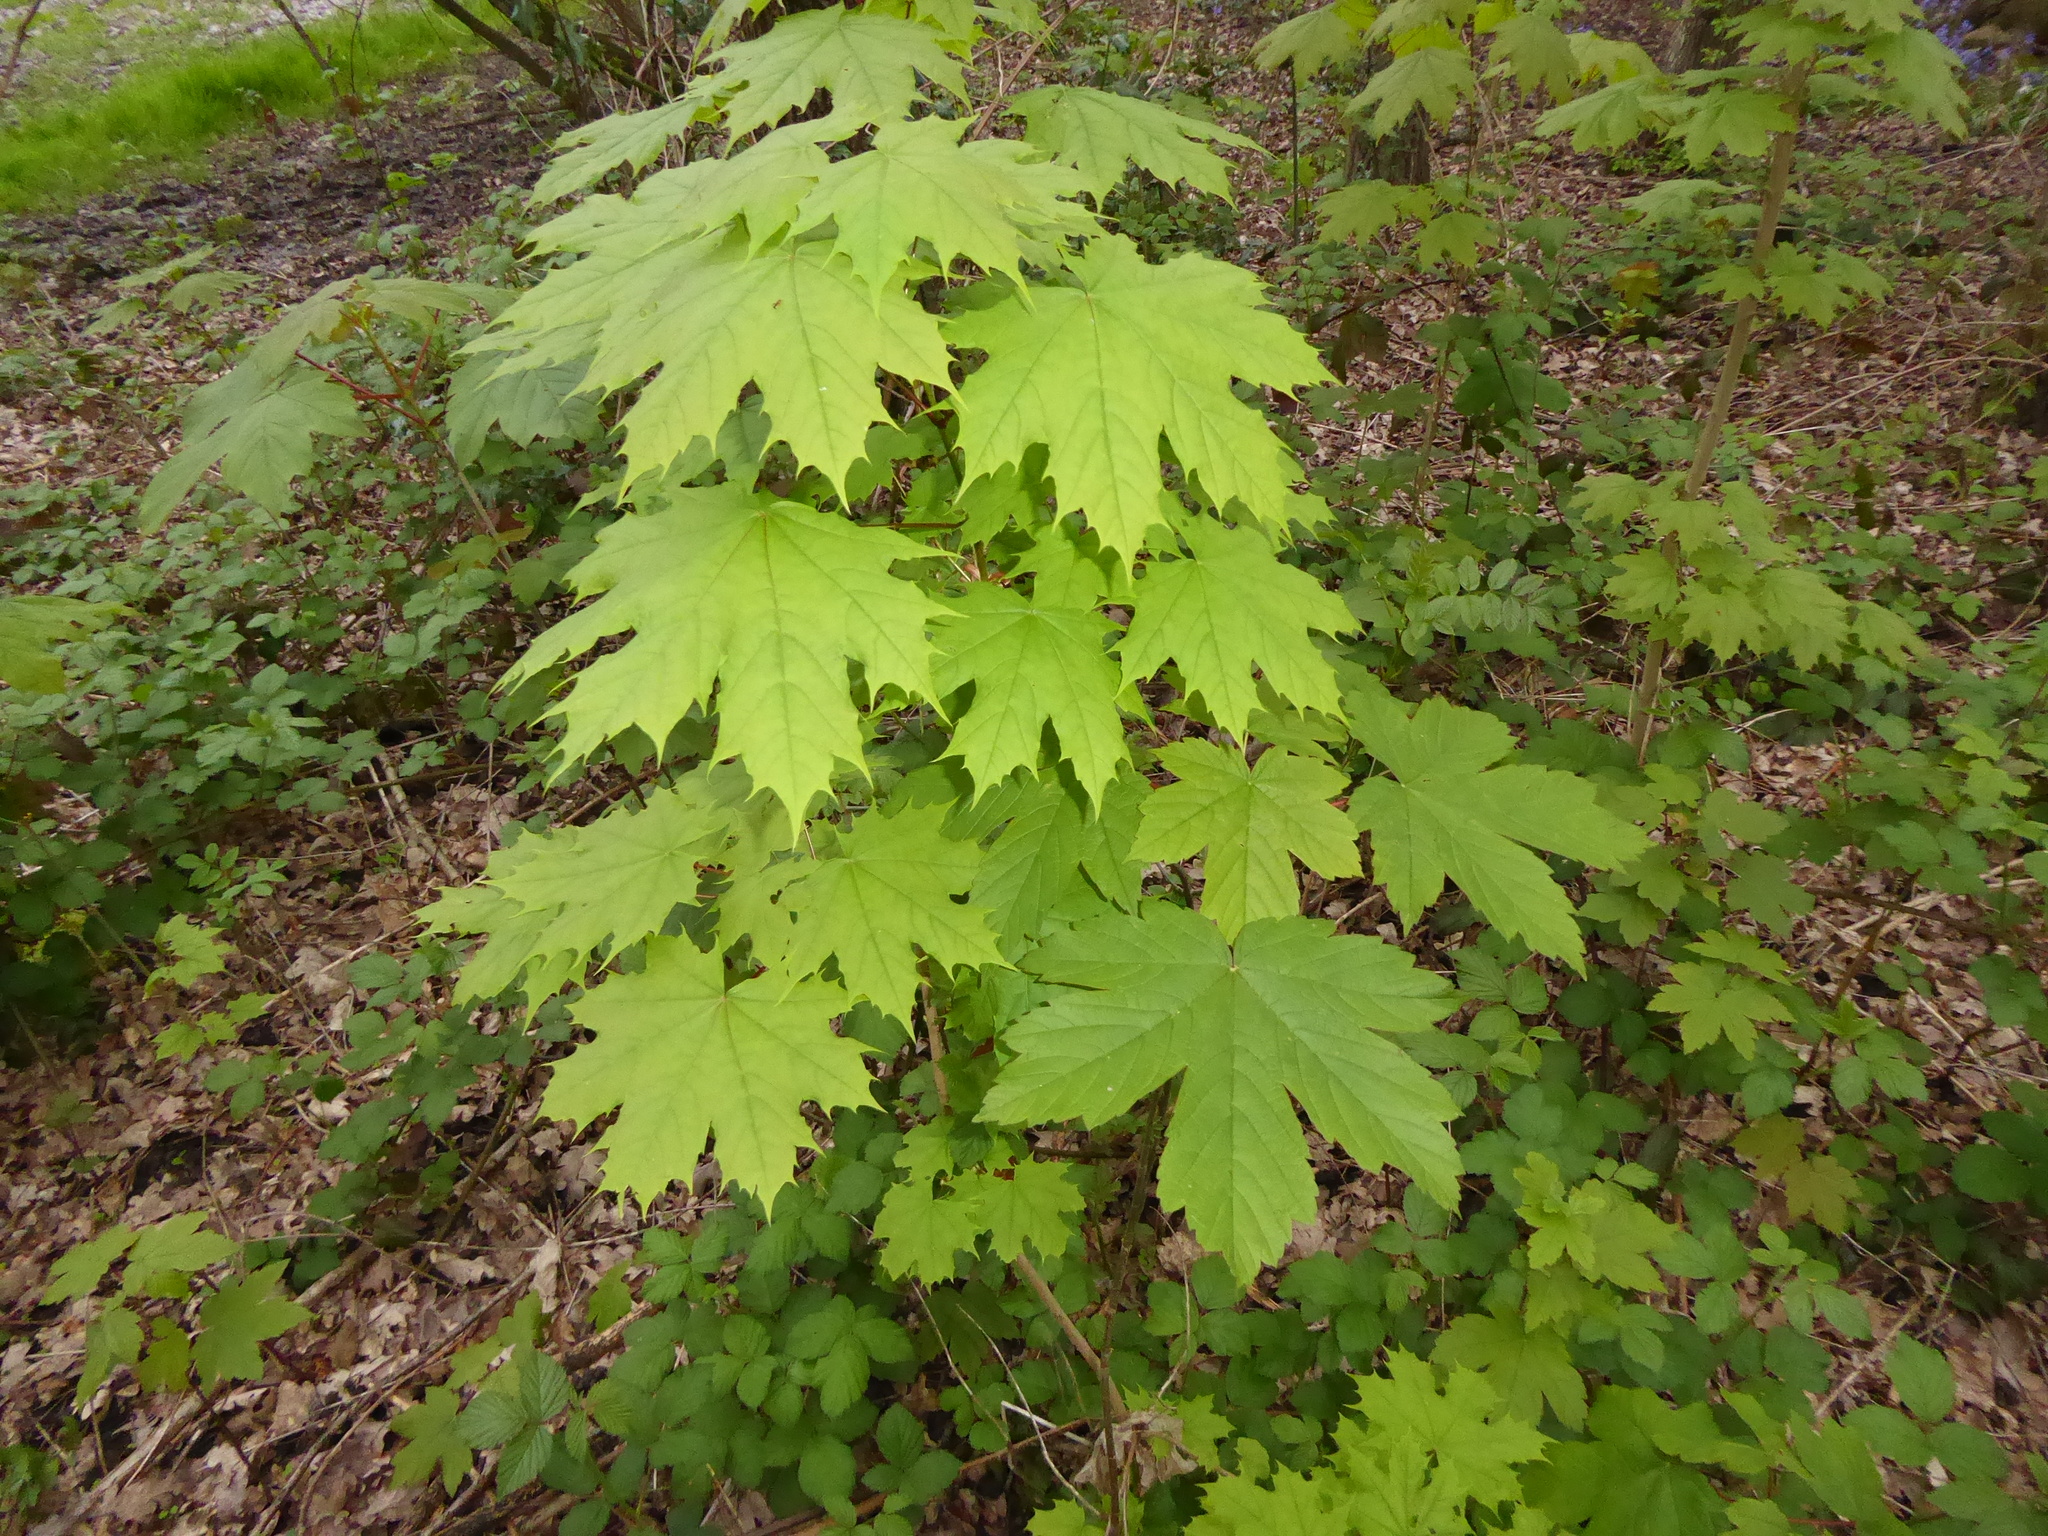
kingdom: Plantae
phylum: Tracheophyta
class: Magnoliopsida
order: Sapindales
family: Sapindaceae
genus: Acer
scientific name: Acer pseudoplatanus
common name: Sycamore
